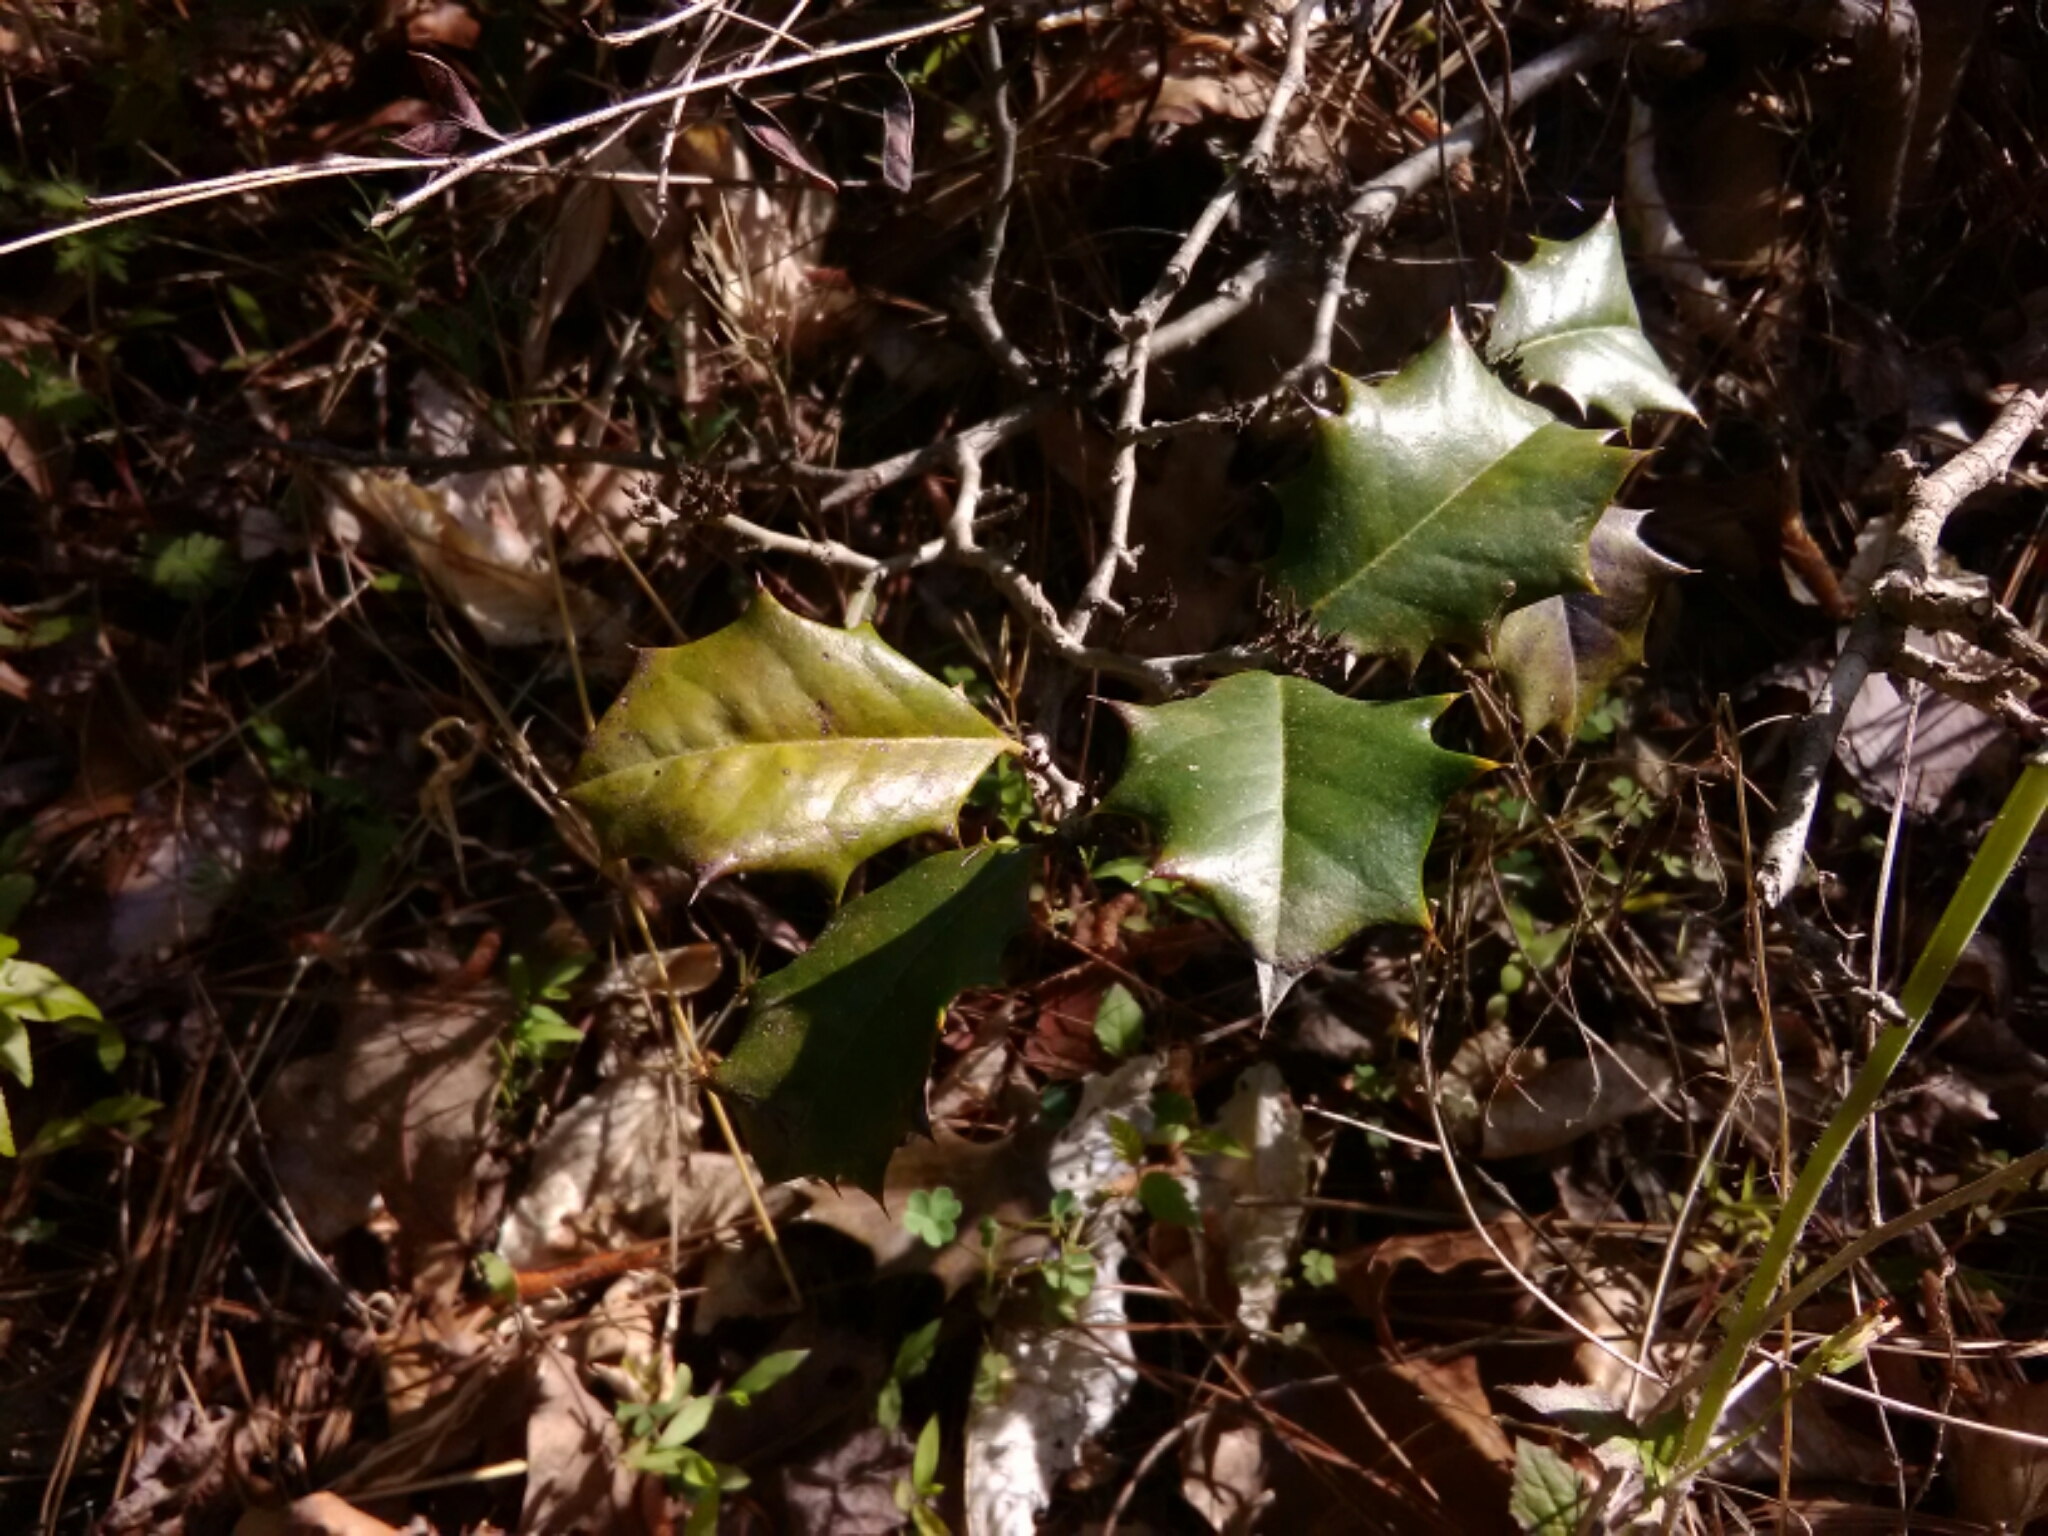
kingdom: Plantae
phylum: Tracheophyta
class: Magnoliopsida
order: Aquifoliales
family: Aquifoliaceae
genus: Ilex
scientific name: Ilex opaca
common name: American holly
